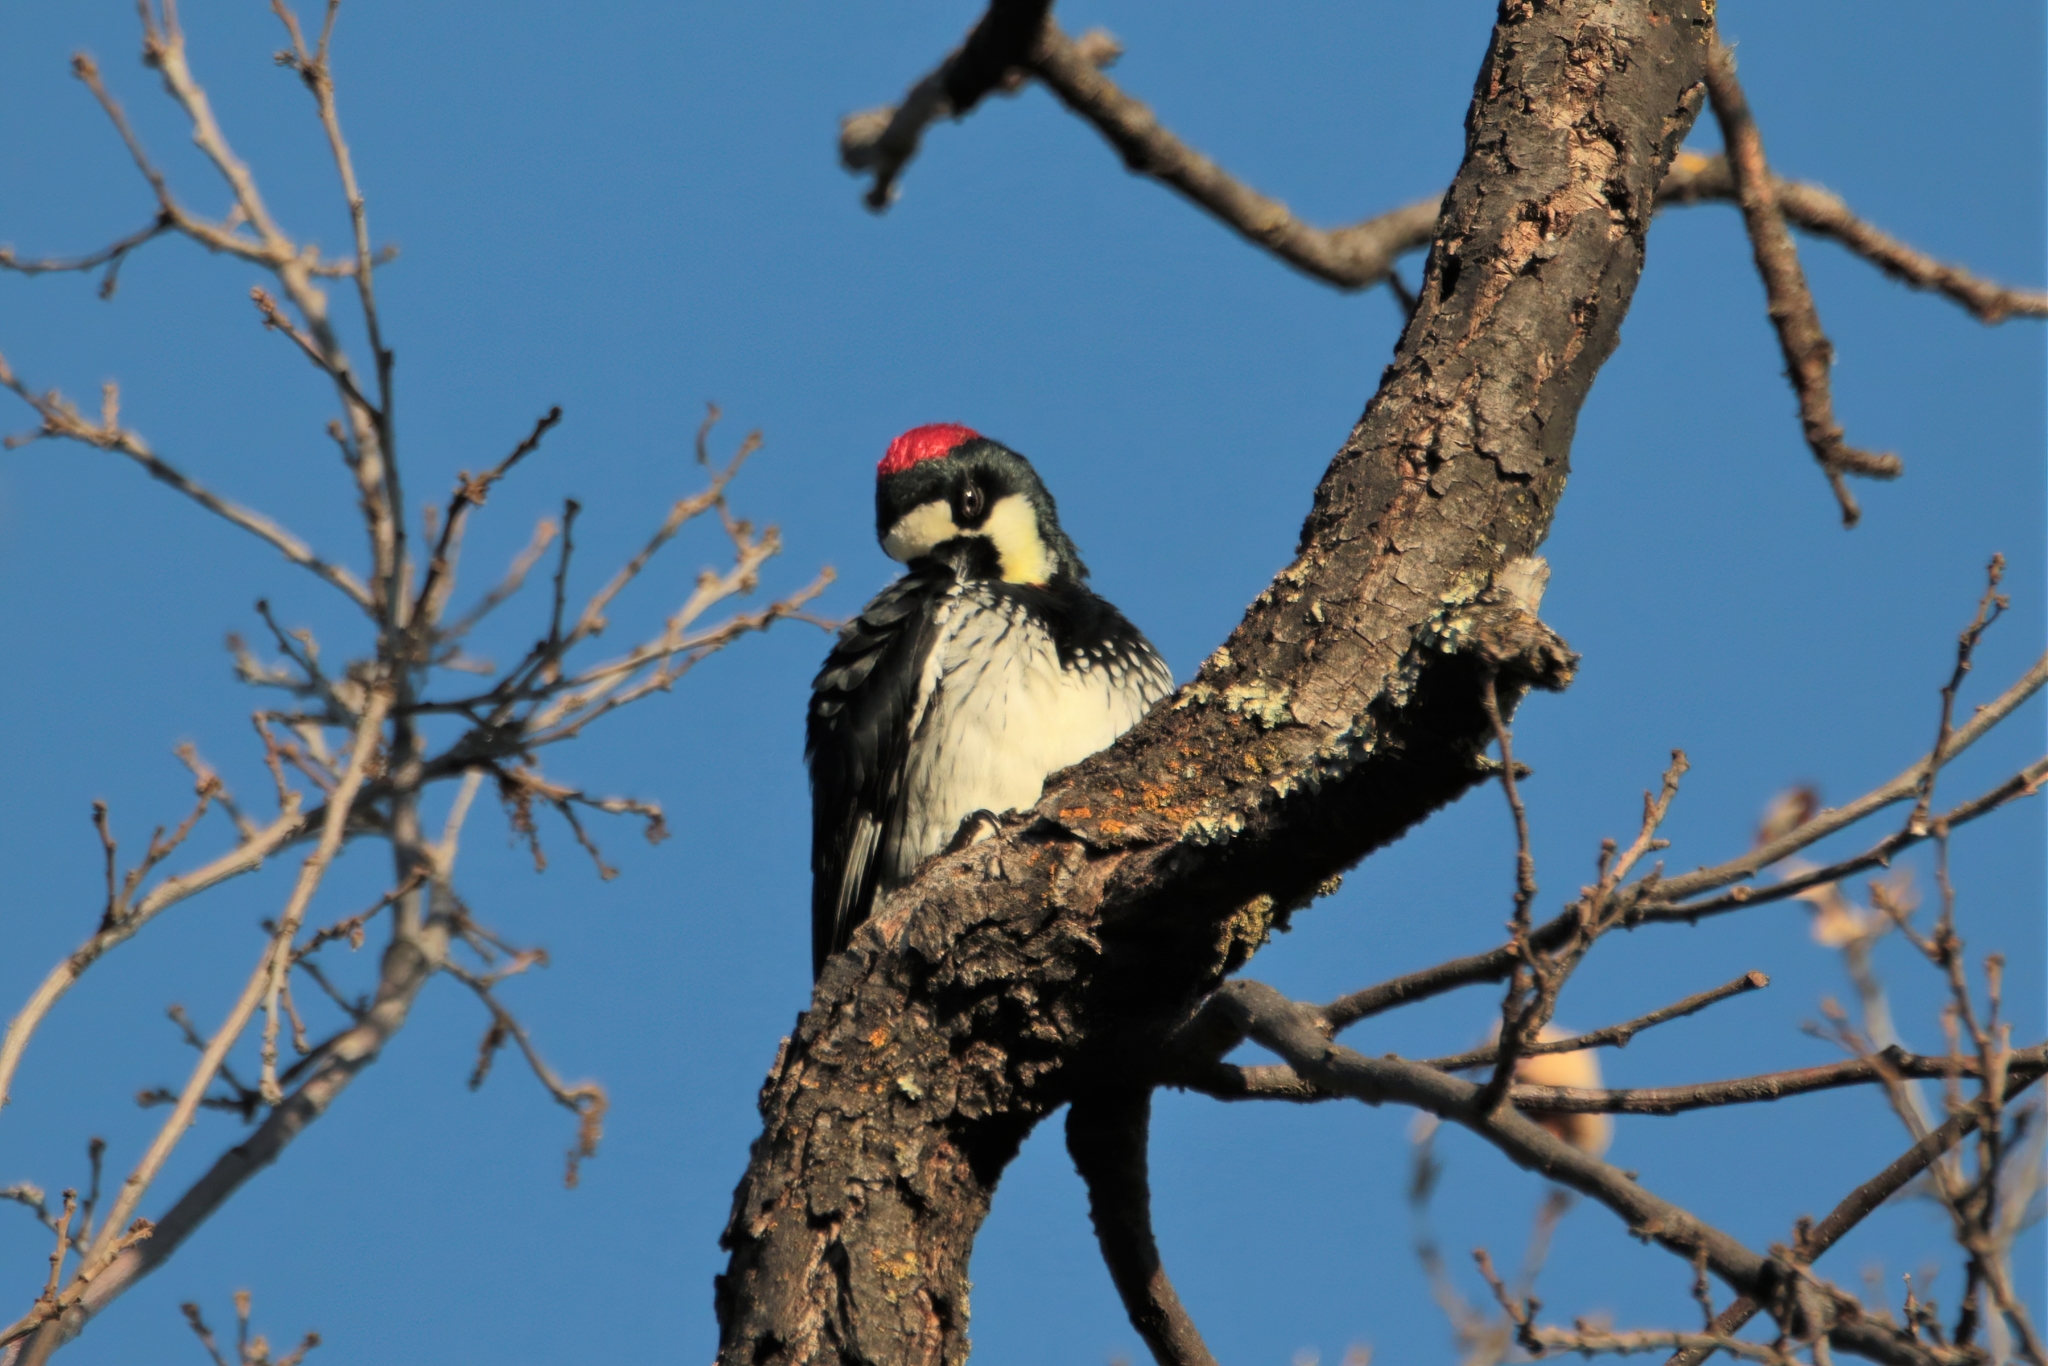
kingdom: Animalia
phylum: Chordata
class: Aves
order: Piciformes
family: Picidae
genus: Melanerpes
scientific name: Melanerpes formicivorus
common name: Acorn woodpecker
